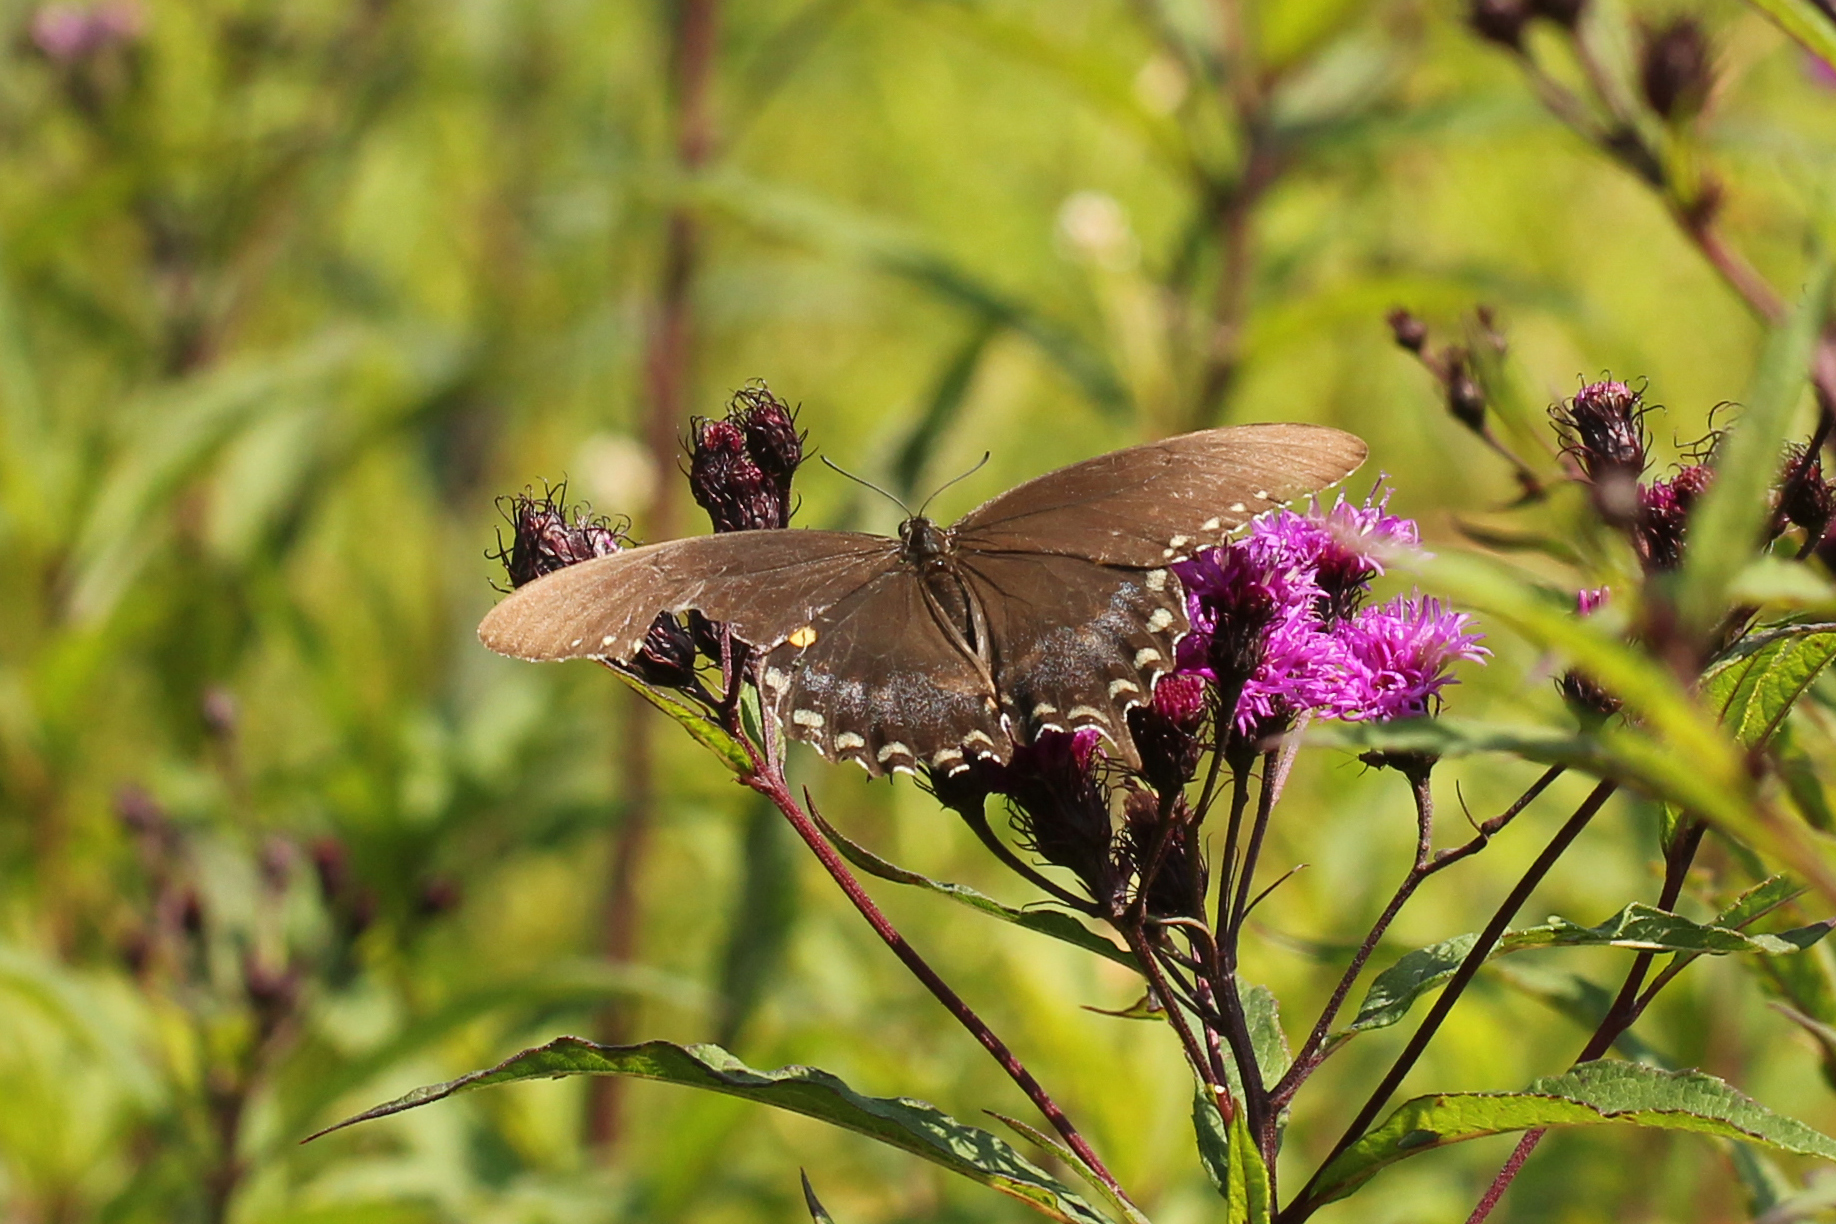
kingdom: Animalia
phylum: Arthropoda
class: Insecta
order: Lepidoptera
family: Papilionidae
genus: Papilio
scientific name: Papilio troilus
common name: Spicebush swallowtail
